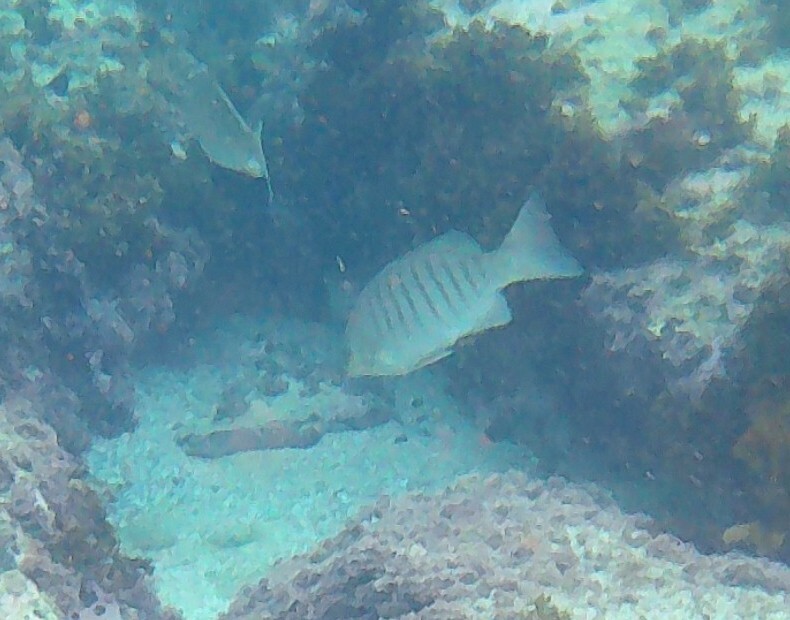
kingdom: Animalia
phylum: Chordata
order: Perciformes
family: Kyphosidae
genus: Girella
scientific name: Girella tricuspidata
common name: Parore
